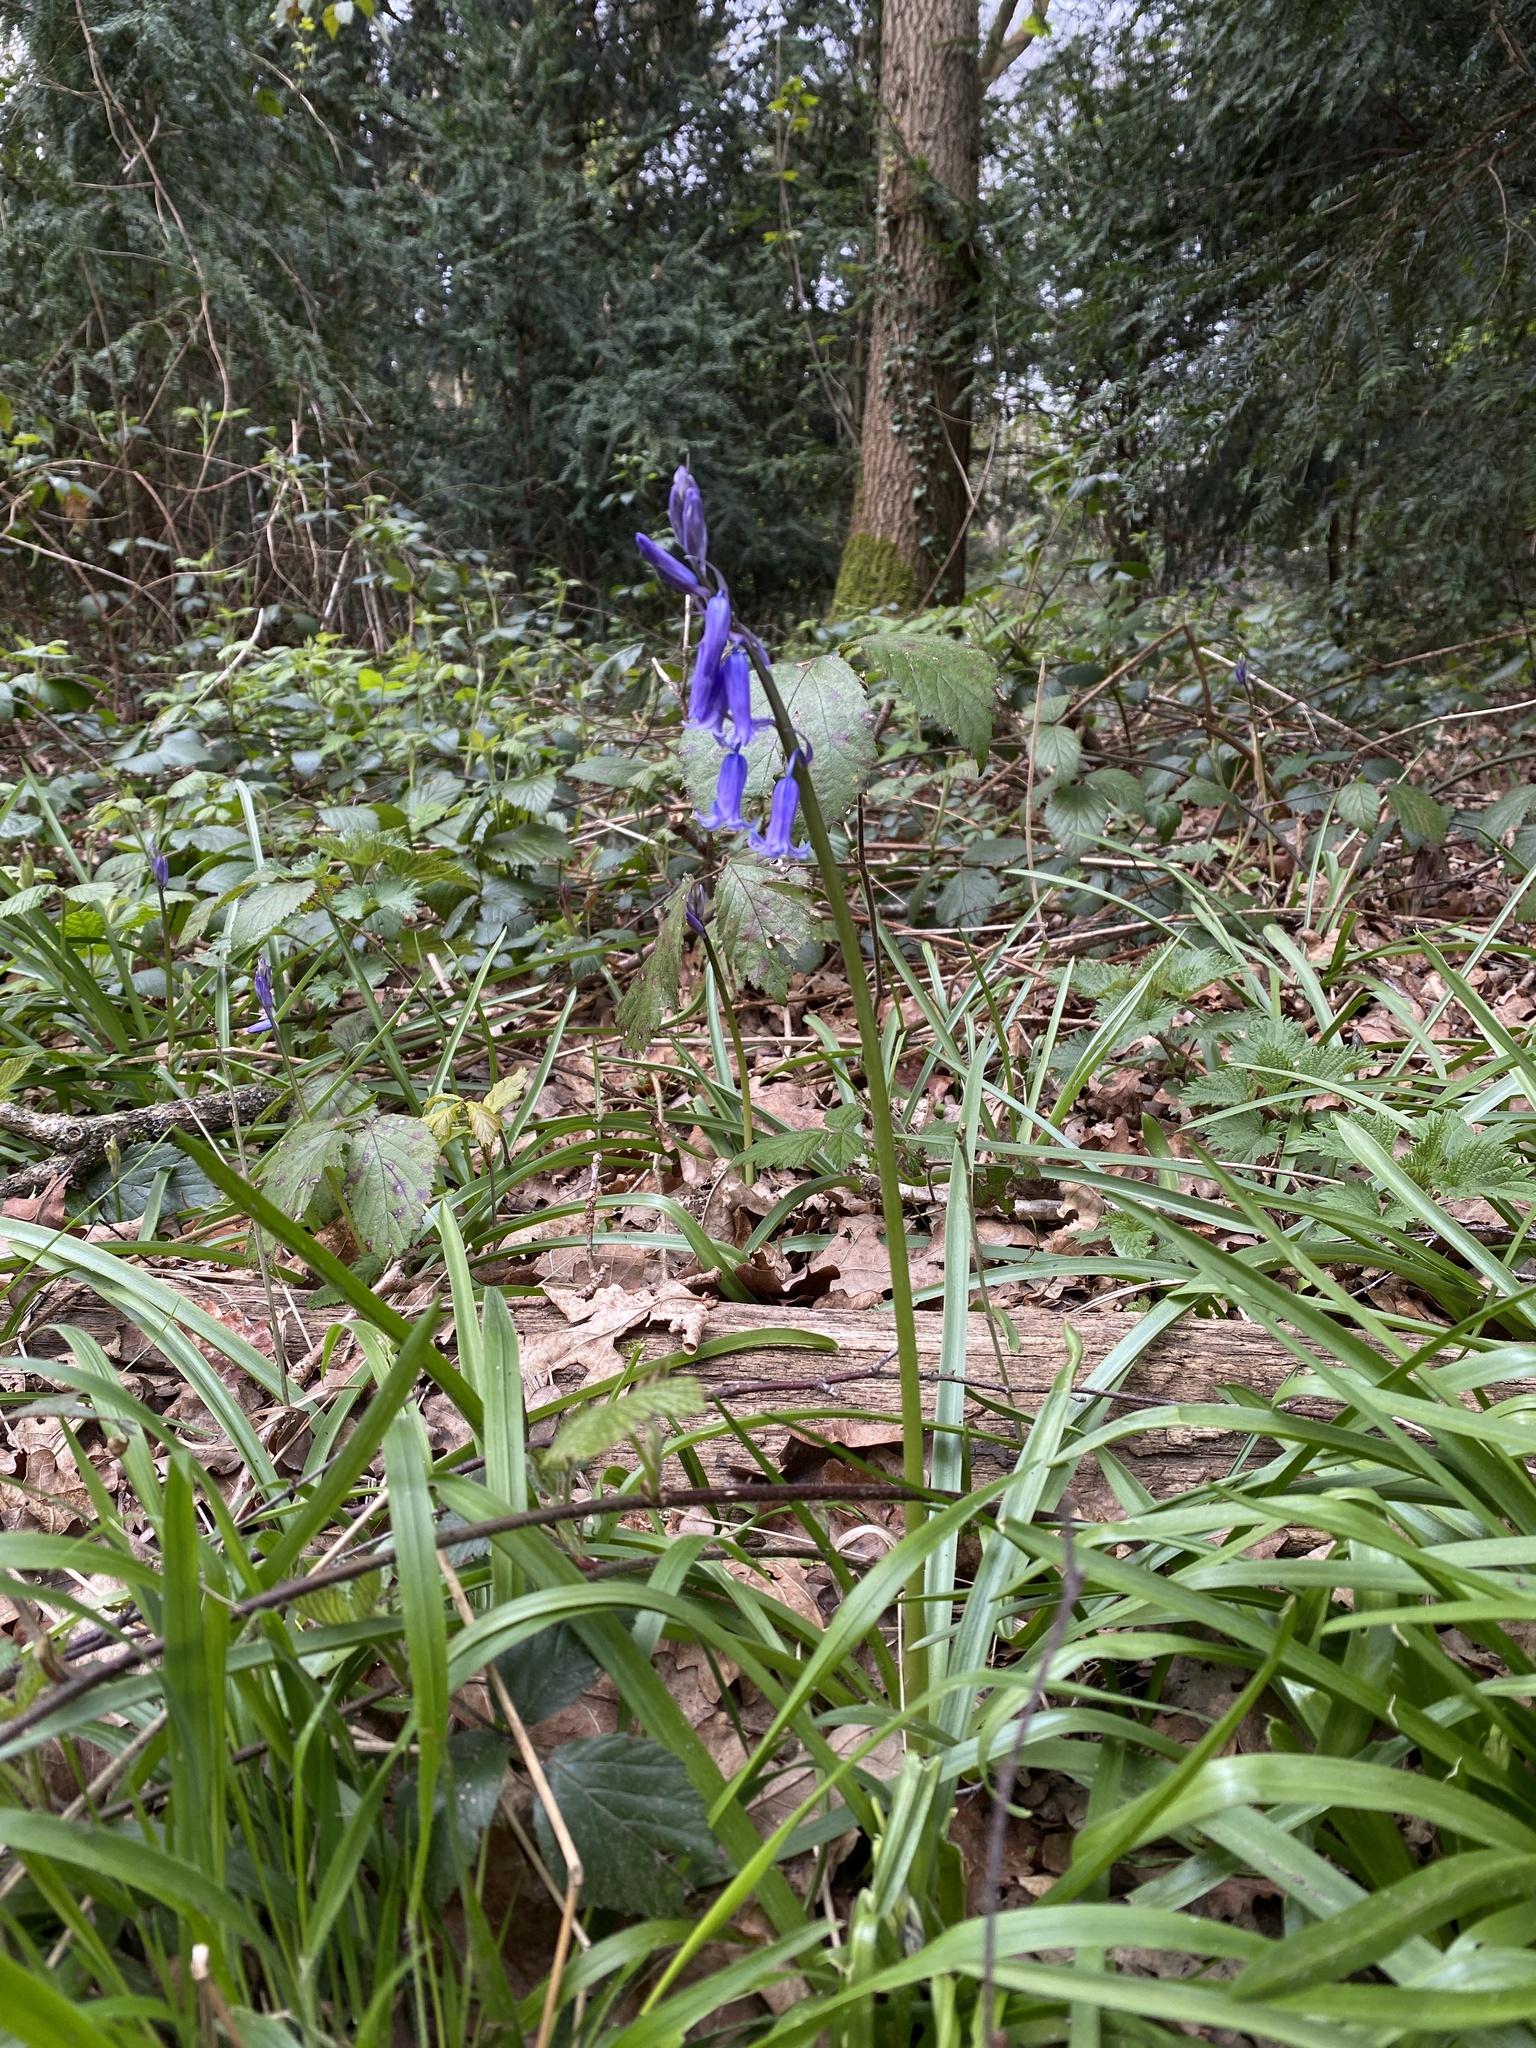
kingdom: Plantae
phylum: Tracheophyta
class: Liliopsida
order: Asparagales
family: Asparagaceae
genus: Hyacinthoides
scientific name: Hyacinthoides non-scripta
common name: Bluebell
